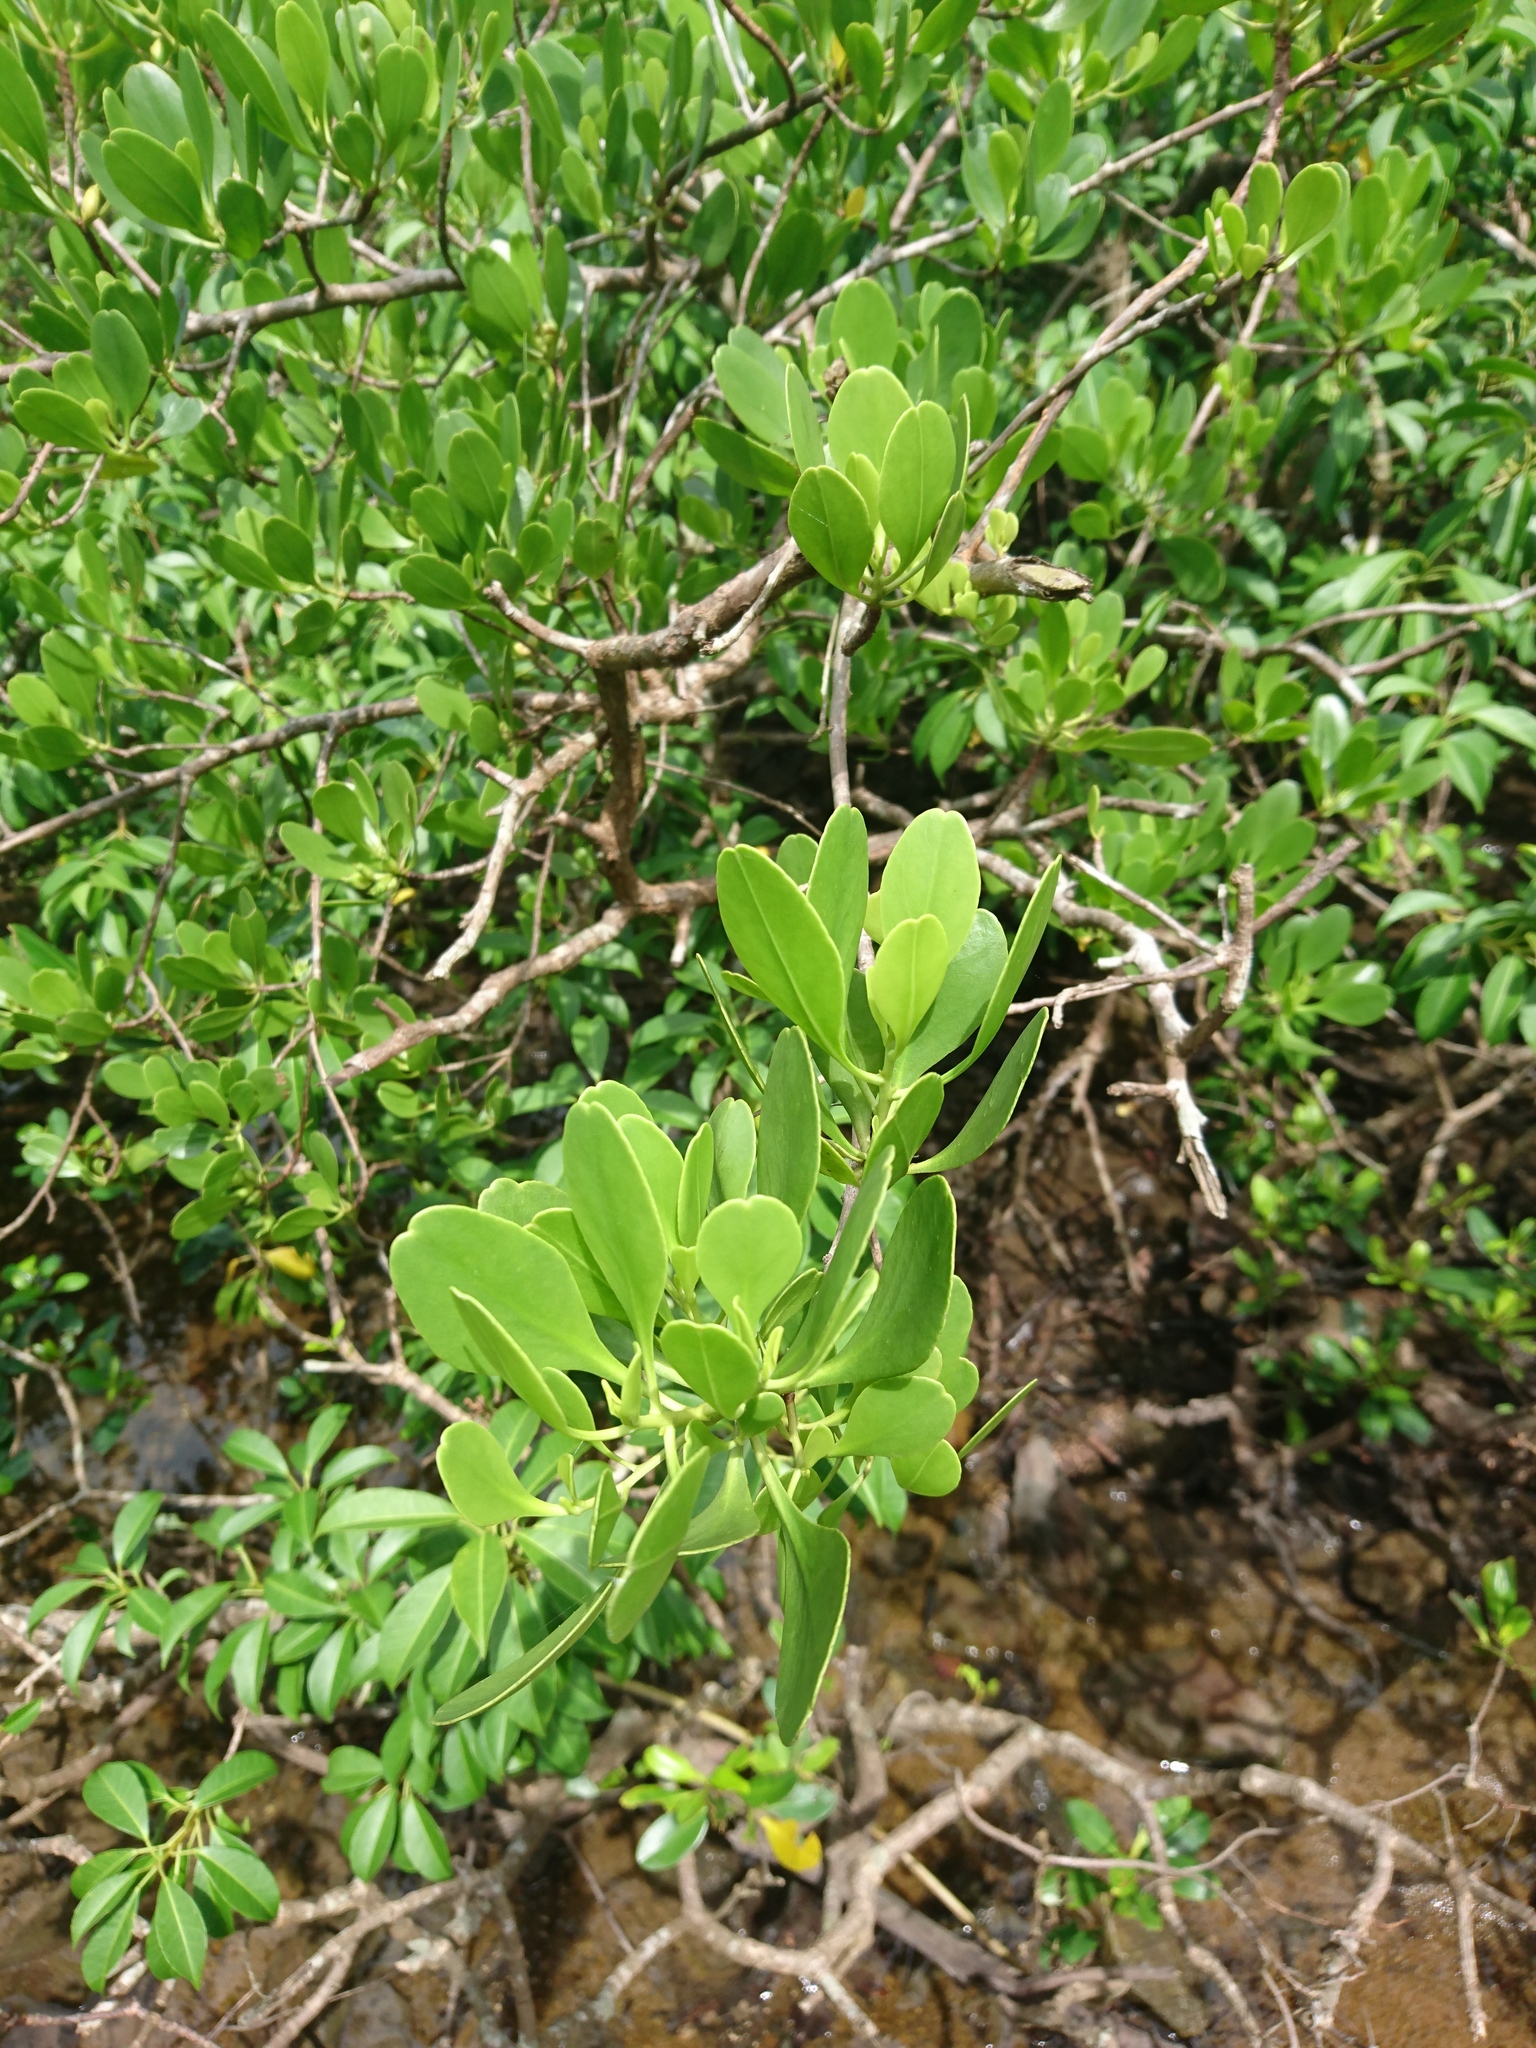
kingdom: Plantae
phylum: Tracheophyta
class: Magnoliopsida
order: Myrtales
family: Combretaceae
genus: Lumnitzera
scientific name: Lumnitzera racemosa
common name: White-flowered black mangrove
